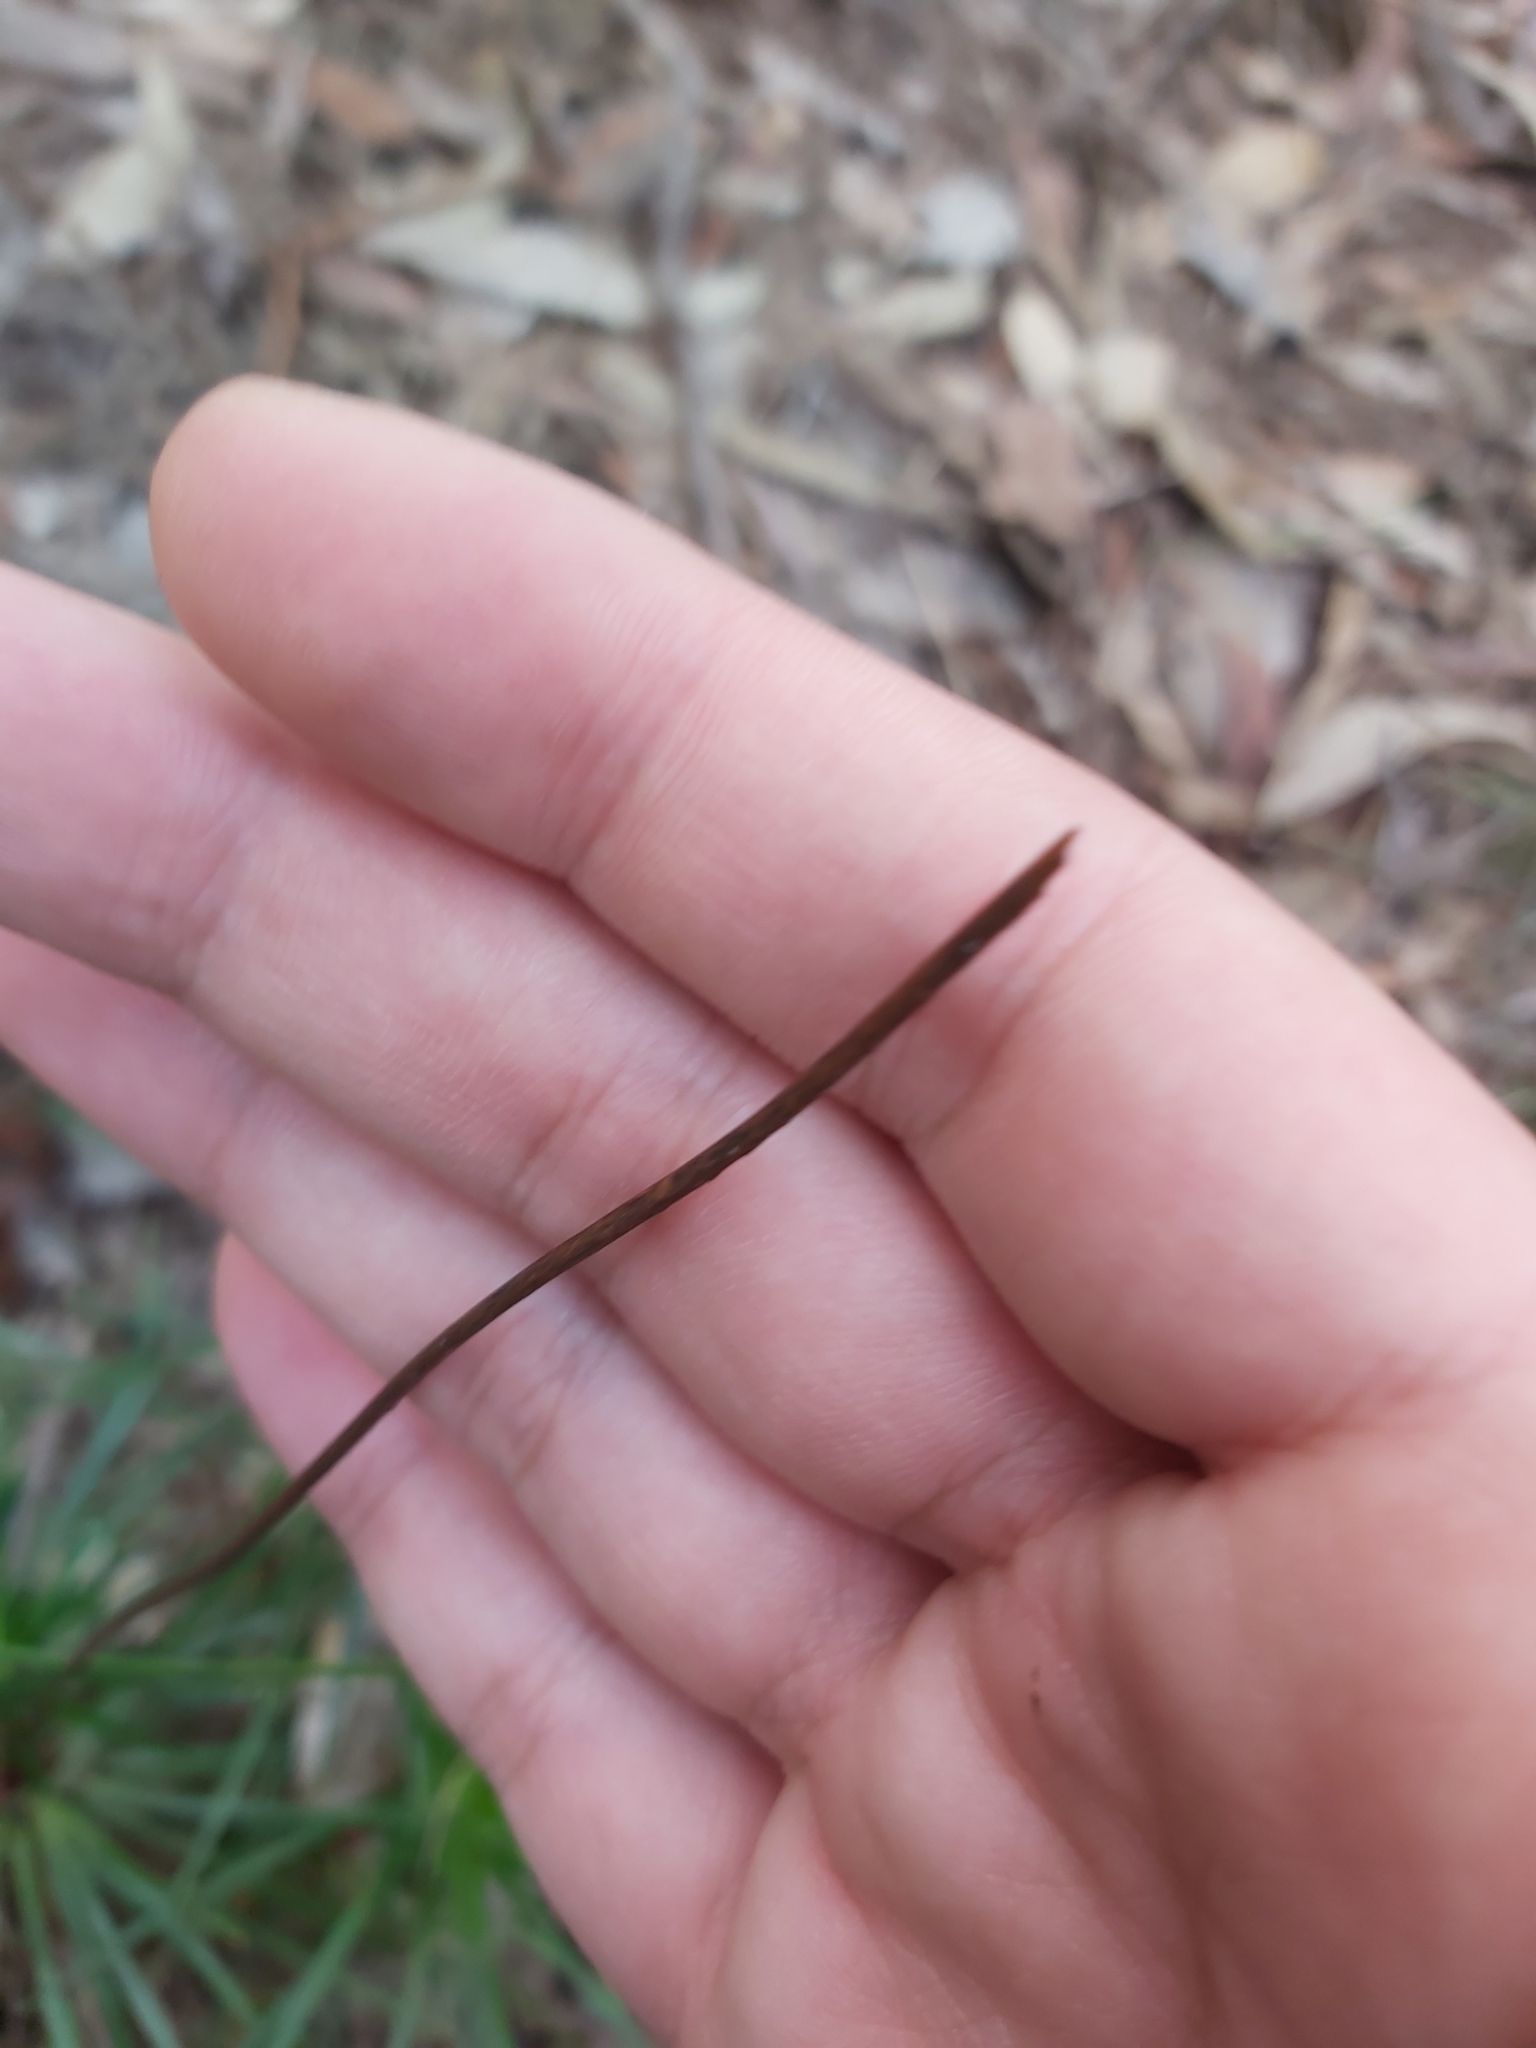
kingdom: Plantae
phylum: Tracheophyta
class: Magnoliopsida
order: Asterales
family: Stylidiaceae
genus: Stylidium
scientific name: Stylidium productum
